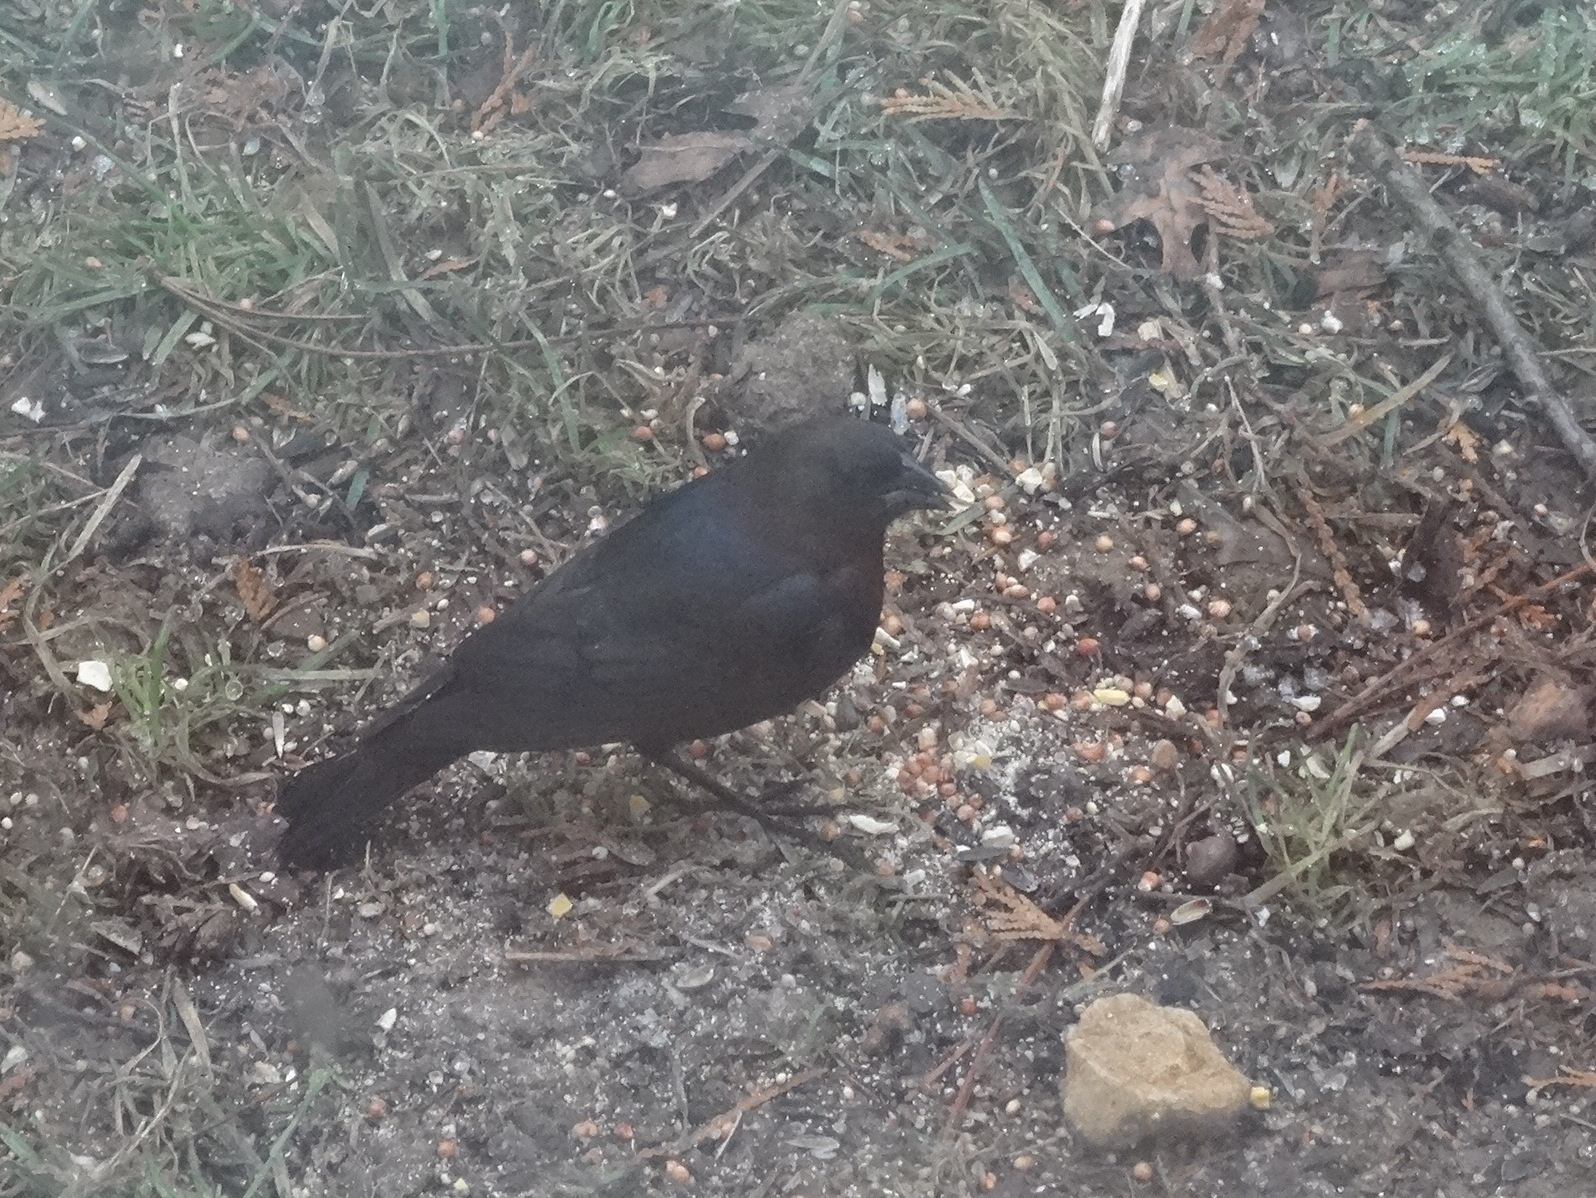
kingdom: Animalia
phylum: Chordata
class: Aves
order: Passeriformes
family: Icteridae
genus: Molothrus
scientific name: Molothrus ater
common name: Brown-headed cowbird
